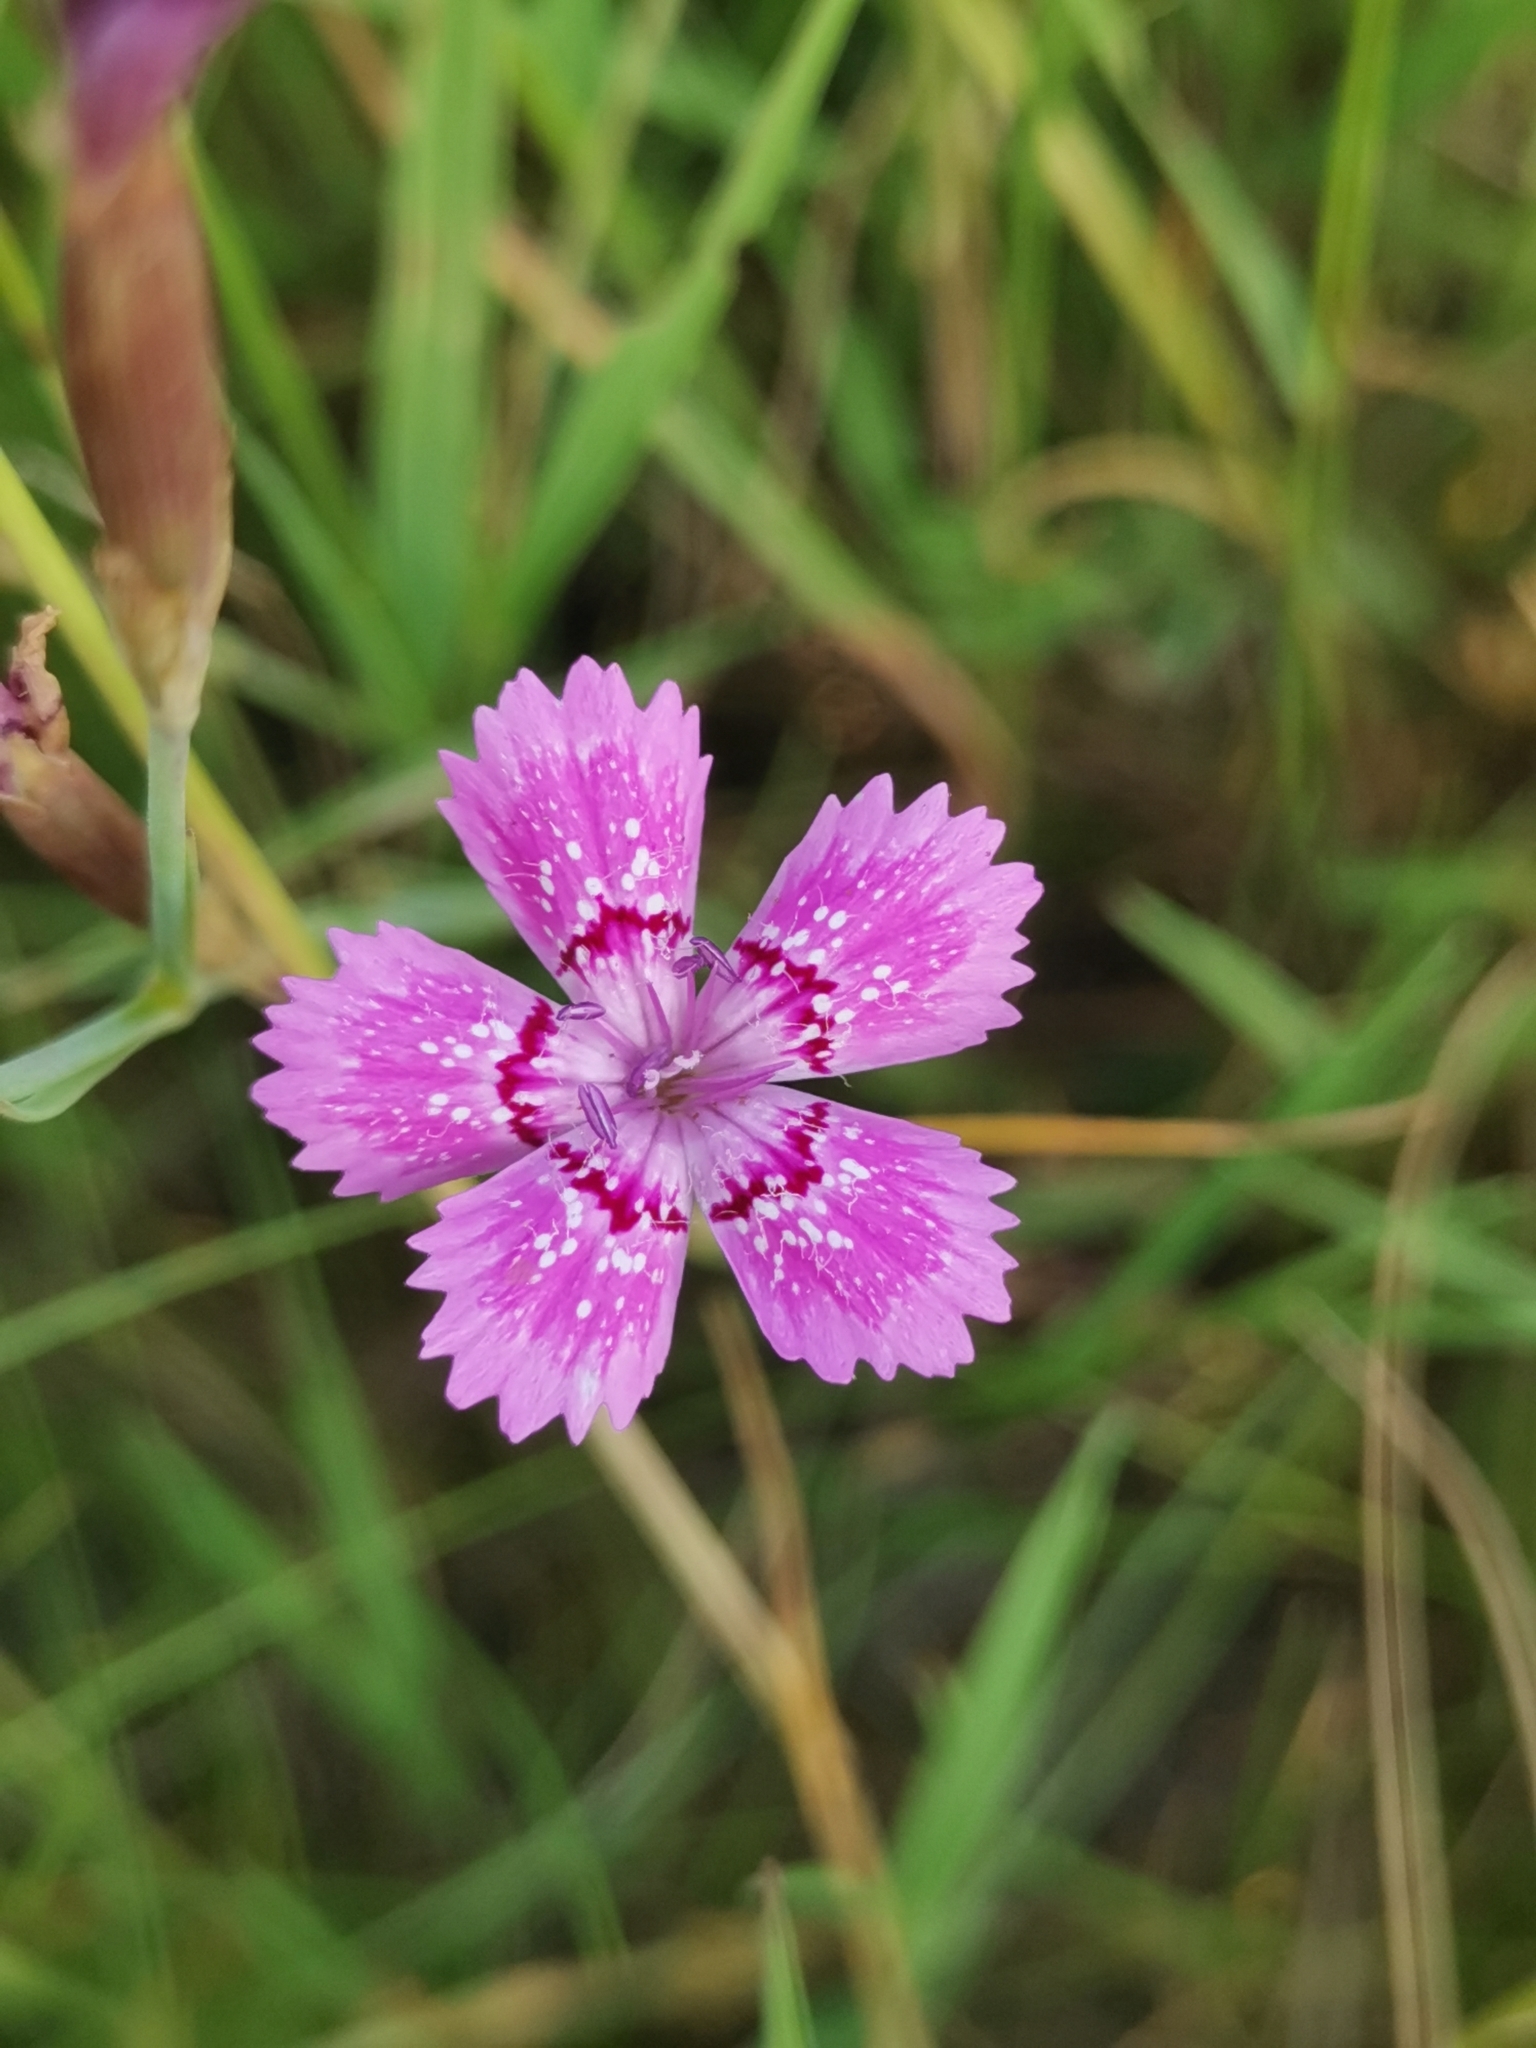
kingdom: Plantae
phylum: Tracheophyta
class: Magnoliopsida
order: Caryophyllales
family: Caryophyllaceae
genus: Dianthus
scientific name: Dianthus deltoides
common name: Maiden pink
